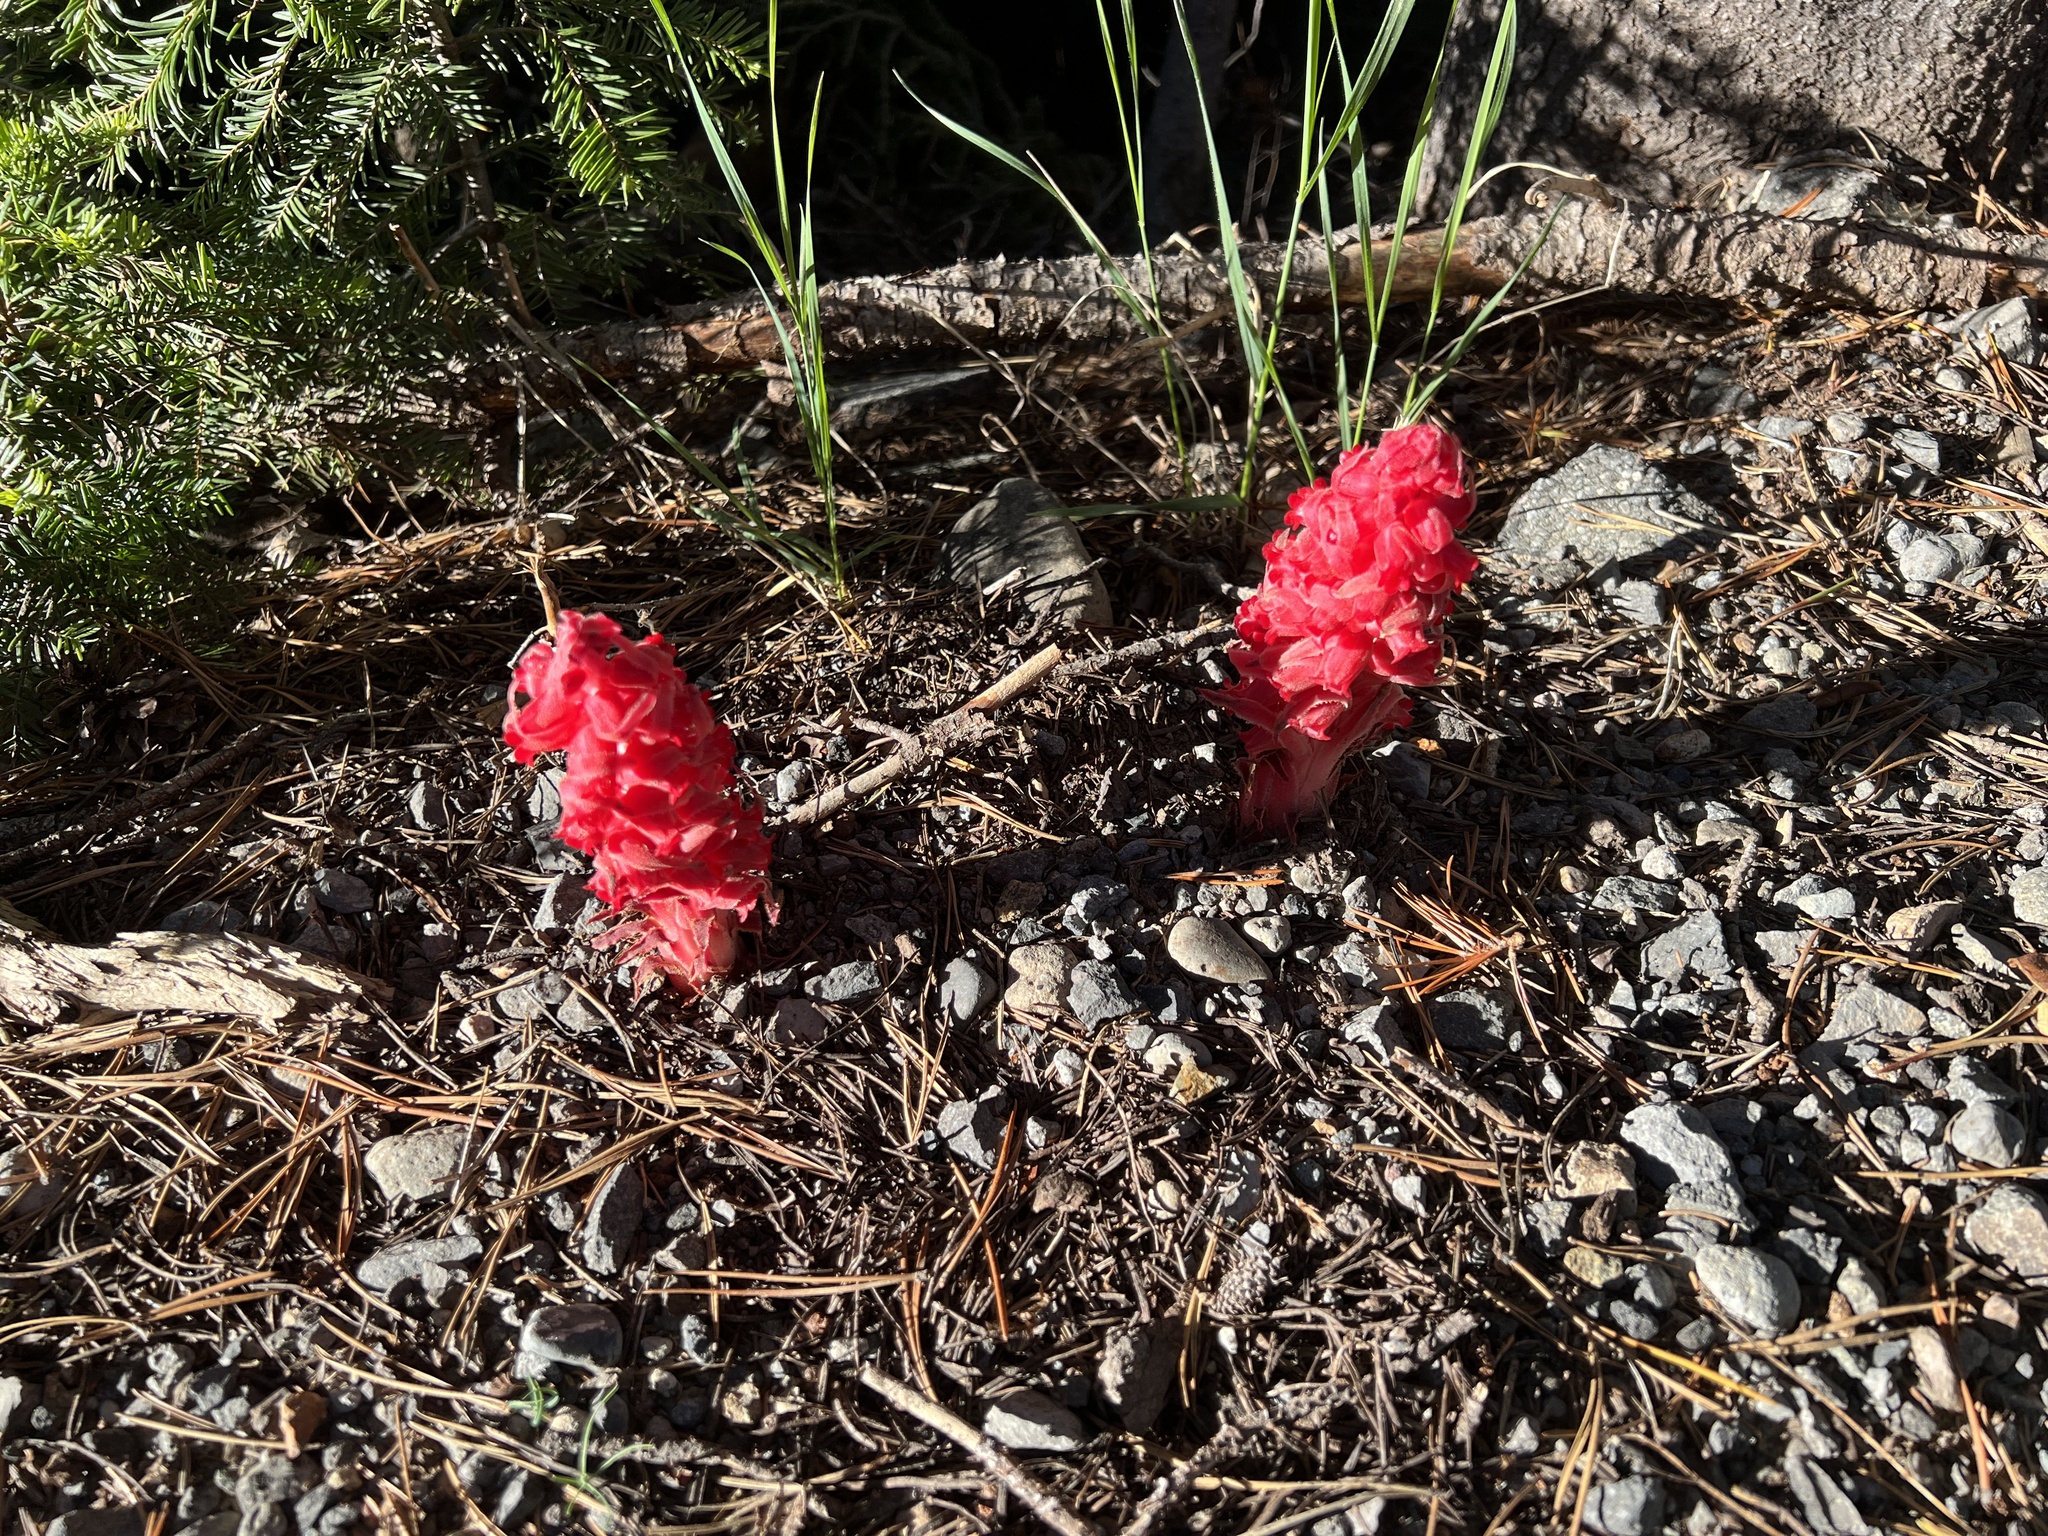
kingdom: Plantae
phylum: Tracheophyta
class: Magnoliopsida
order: Ericales
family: Ericaceae
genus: Sarcodes
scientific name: Sarcodes sanguinea
